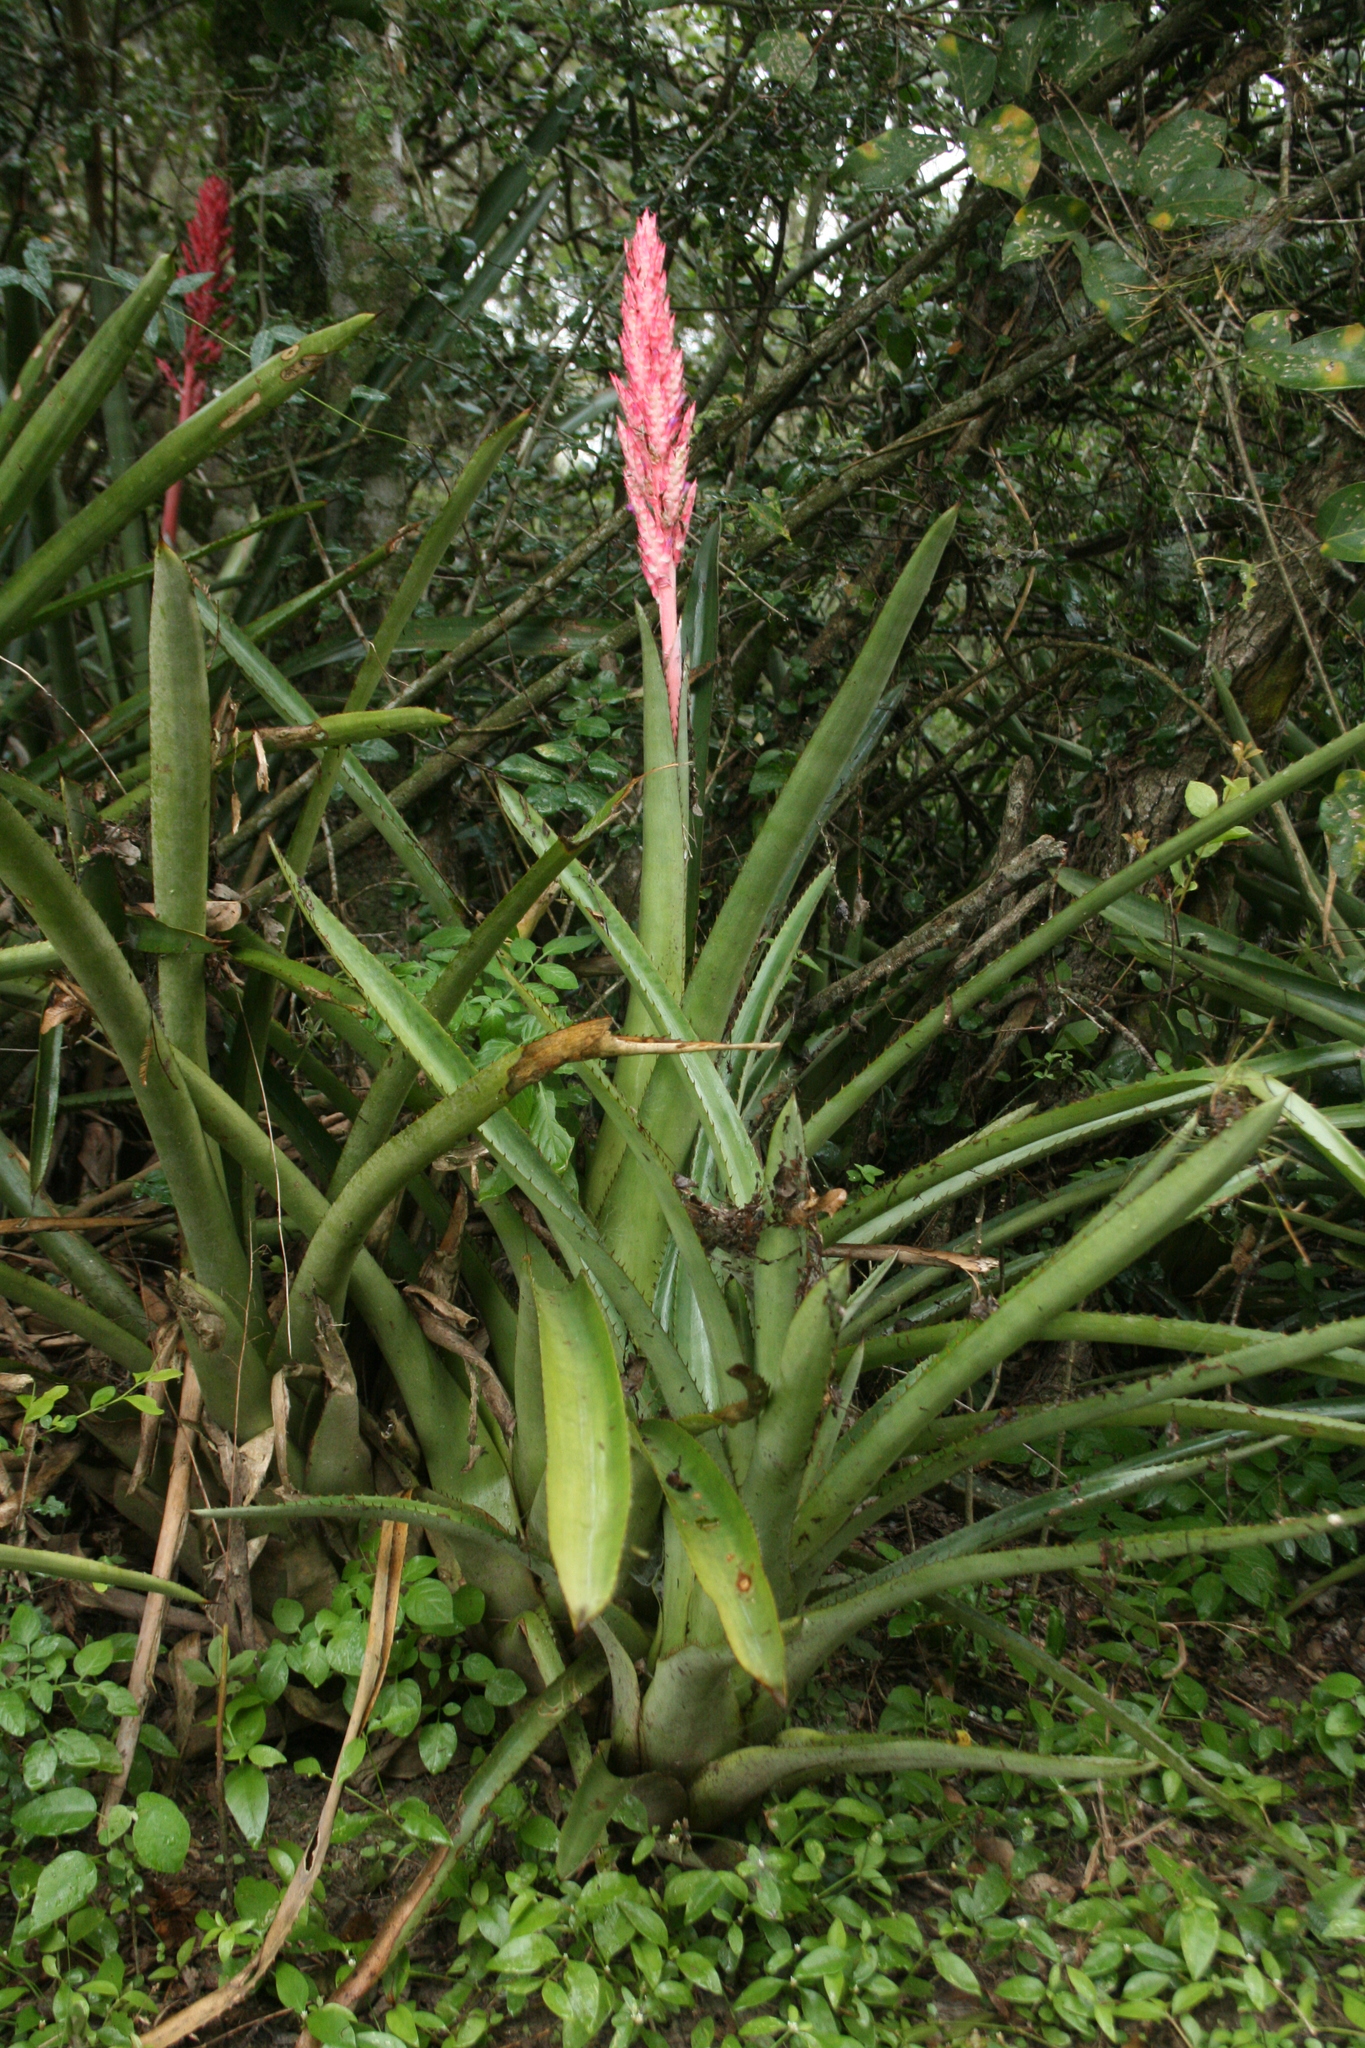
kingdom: Plantae
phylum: Tracheophyta
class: Liliopsida
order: Poales
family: Bromeliaceae
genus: Aechmea
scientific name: Aechmea distichantha
